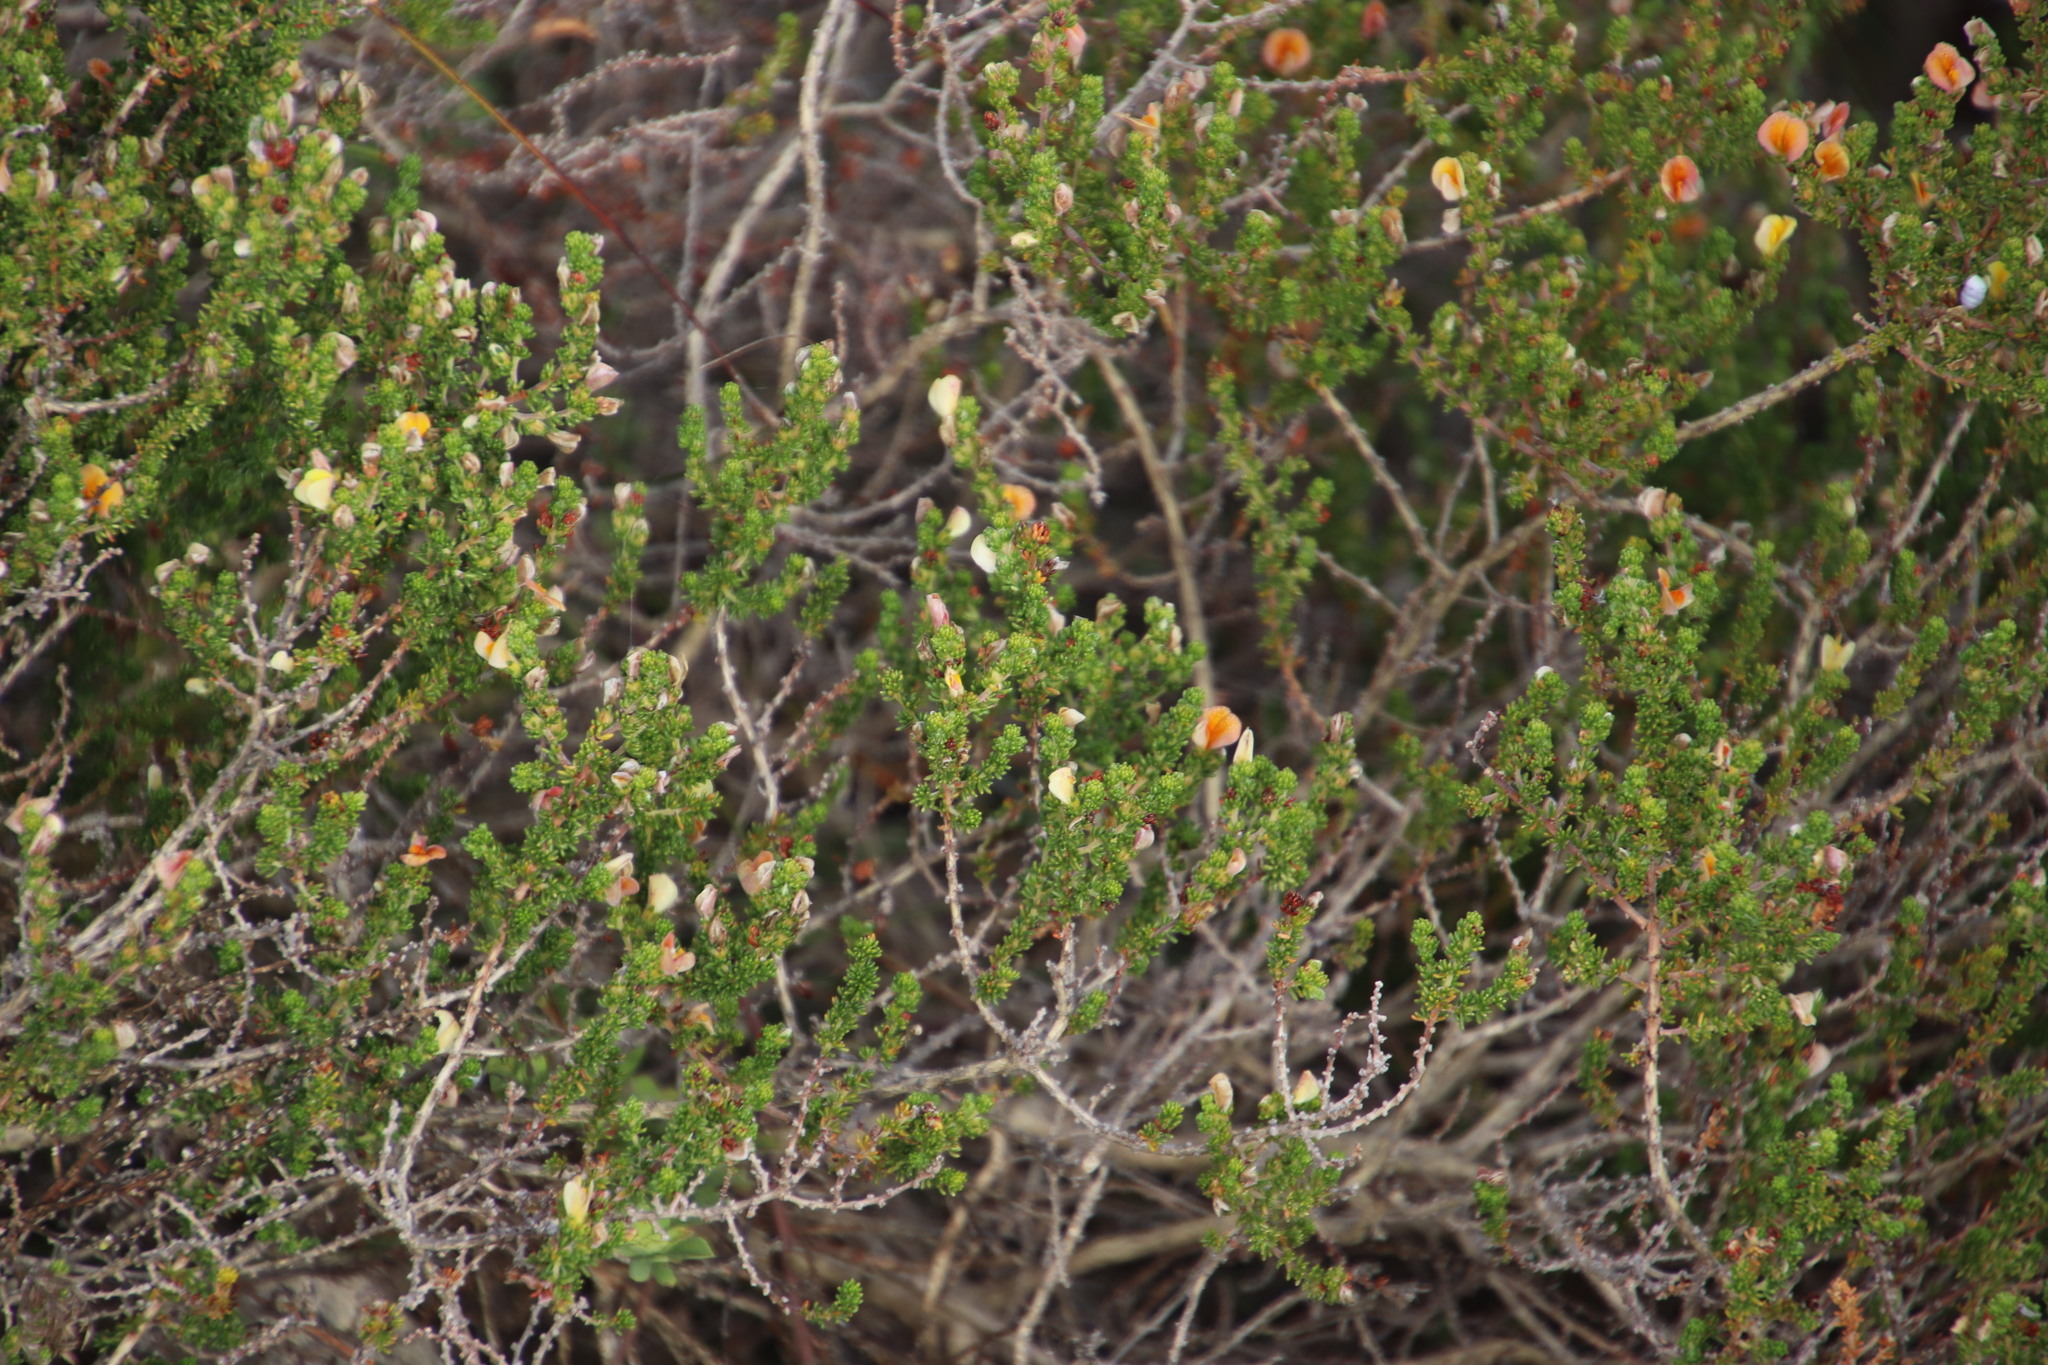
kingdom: Plantae
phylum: Tracheophyta
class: Magnoliopsida
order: Fabales
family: Fabaceae
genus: Aspalathus
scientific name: Aspalathus salteri
